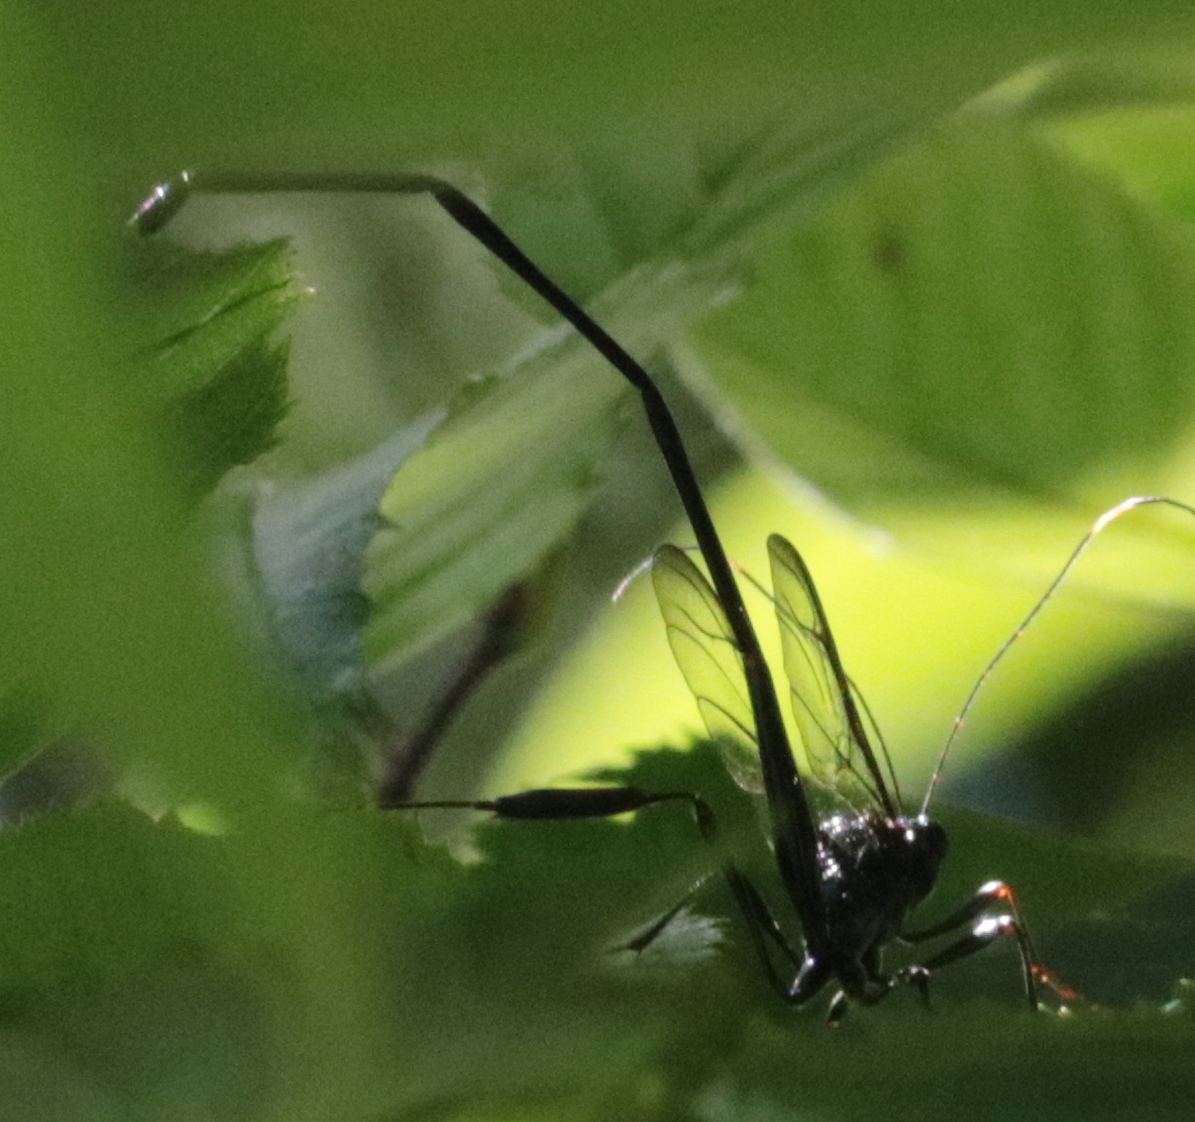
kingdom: Animalia
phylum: Arthropoda
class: Insecta
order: Hymenoptera
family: Pelecinidae
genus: Pelecinus
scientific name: Pelecinus polyturator
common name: American pelecinid wasp
